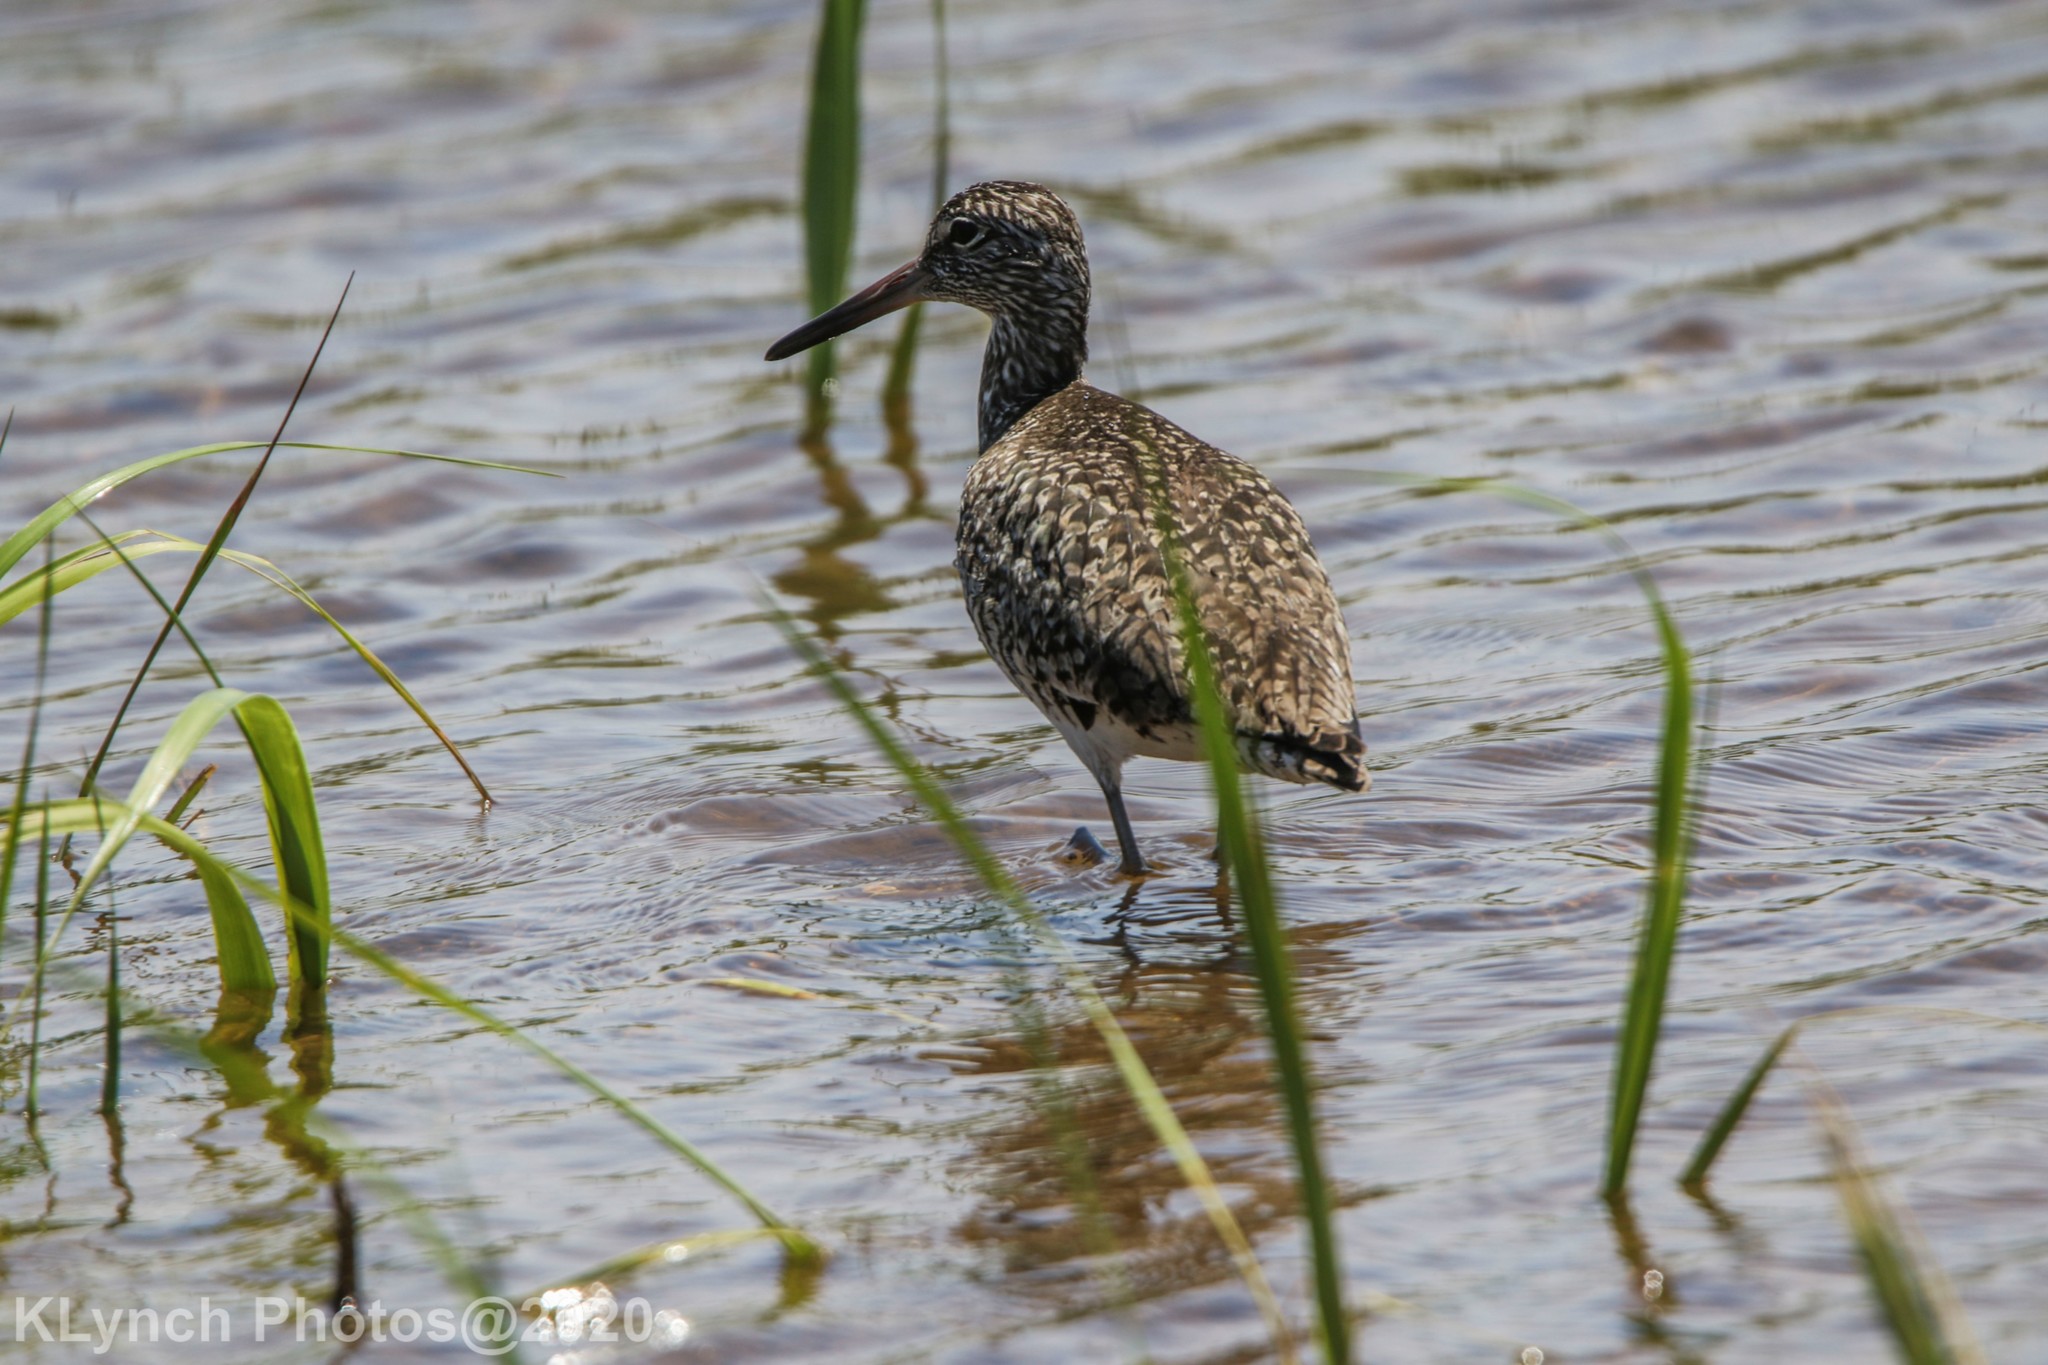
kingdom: Animalia
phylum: Chordata
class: Aves
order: Charadriiformes
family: Scolopacidae
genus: Tringa
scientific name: Tringa semipalmata
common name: Willet
